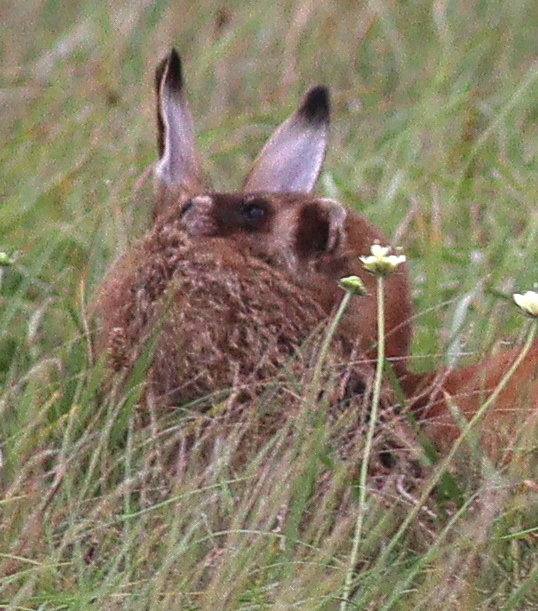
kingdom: Animalia
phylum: Chordata
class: Mammalia
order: Lagomorpha
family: Leporidae
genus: Lepus
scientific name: Lepus europaeus
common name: European hare
